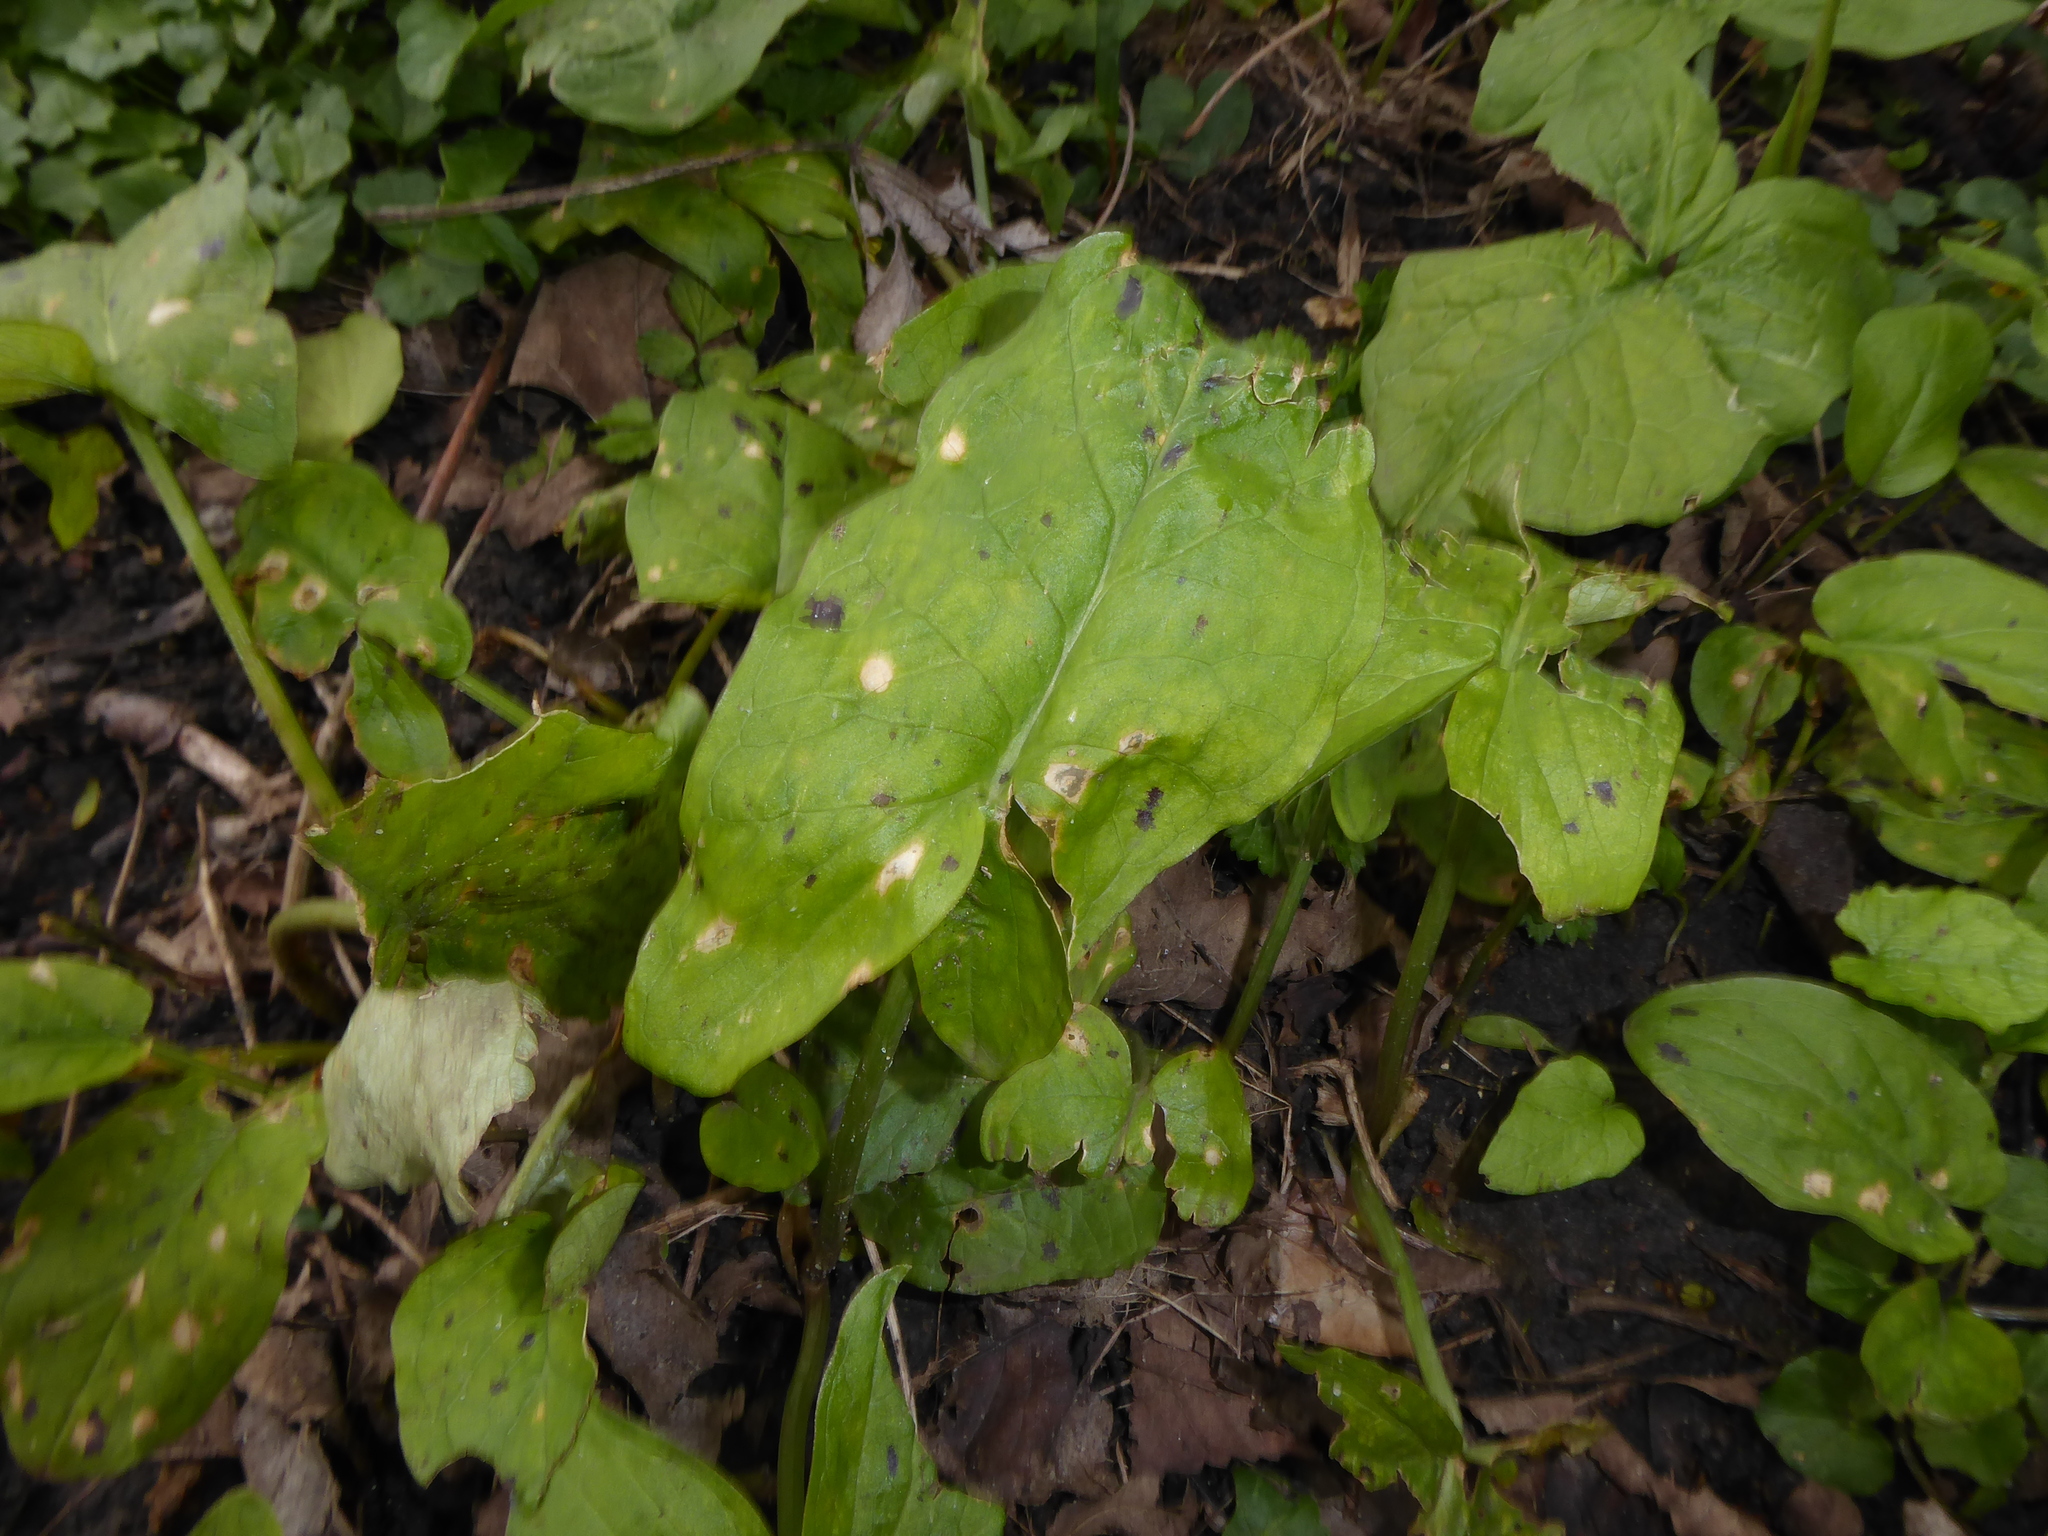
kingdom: Plantae
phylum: Tracheophyta
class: Liliopsida
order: Alismatales
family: Araceae
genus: Arum
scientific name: Arum maculatum
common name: Lords-and-ladies
